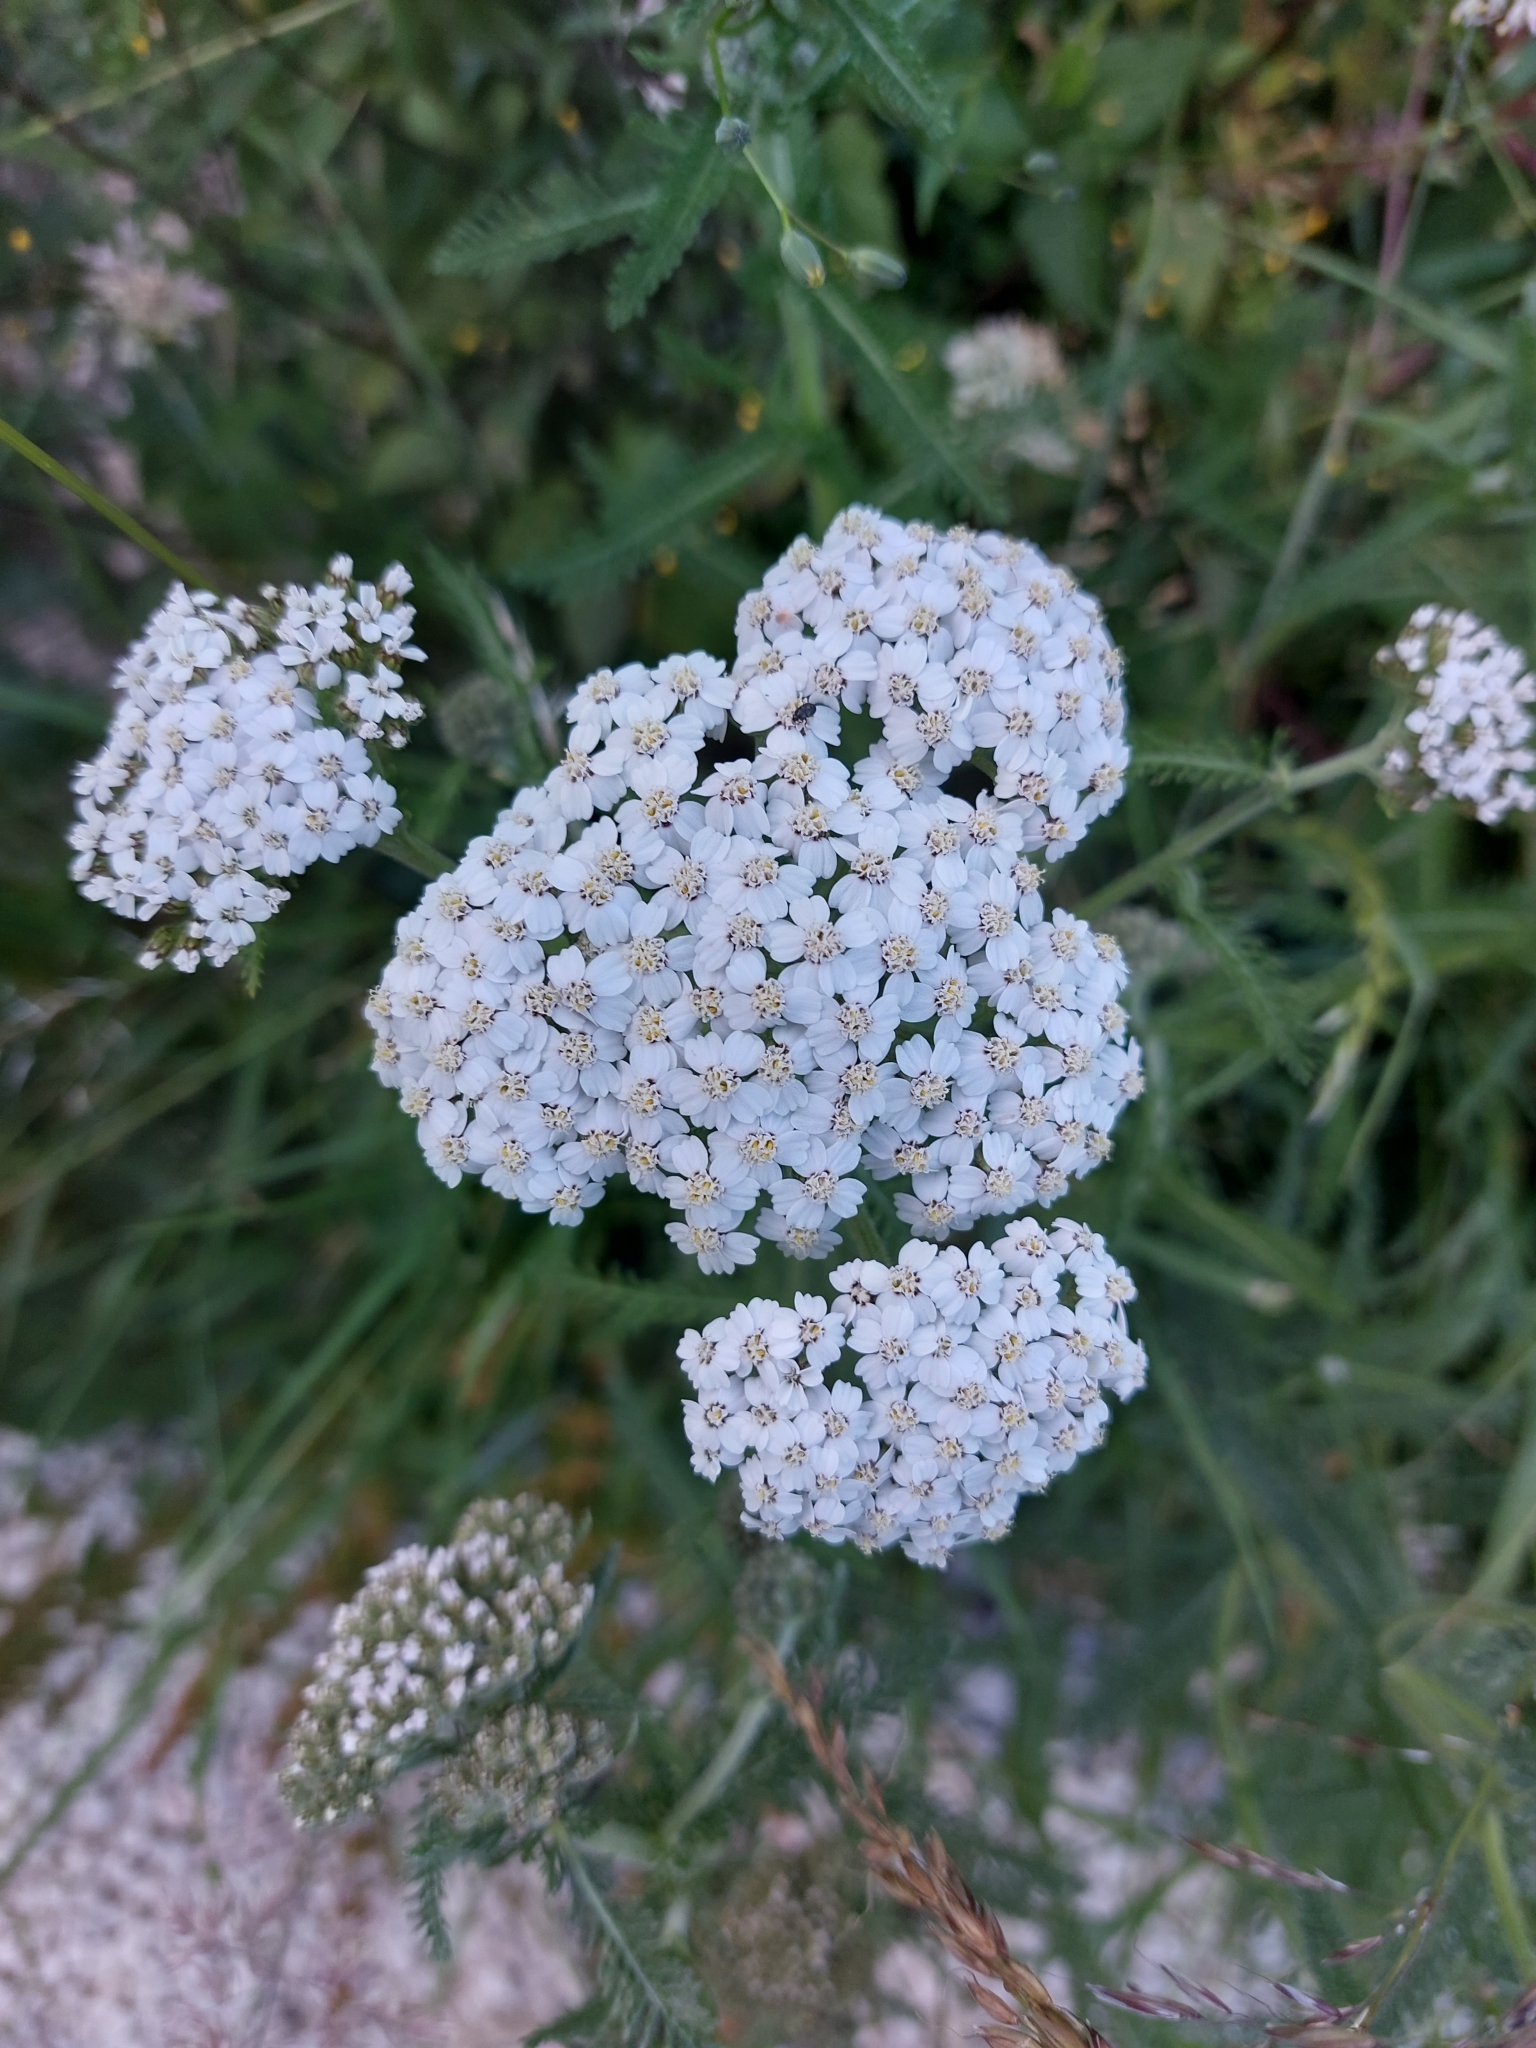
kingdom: Plantae
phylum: Tracheophyta
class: Magnoliopsida
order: Asterales
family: Asteraceae
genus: Achillea
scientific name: Achillea millefolium
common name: Yarrow
